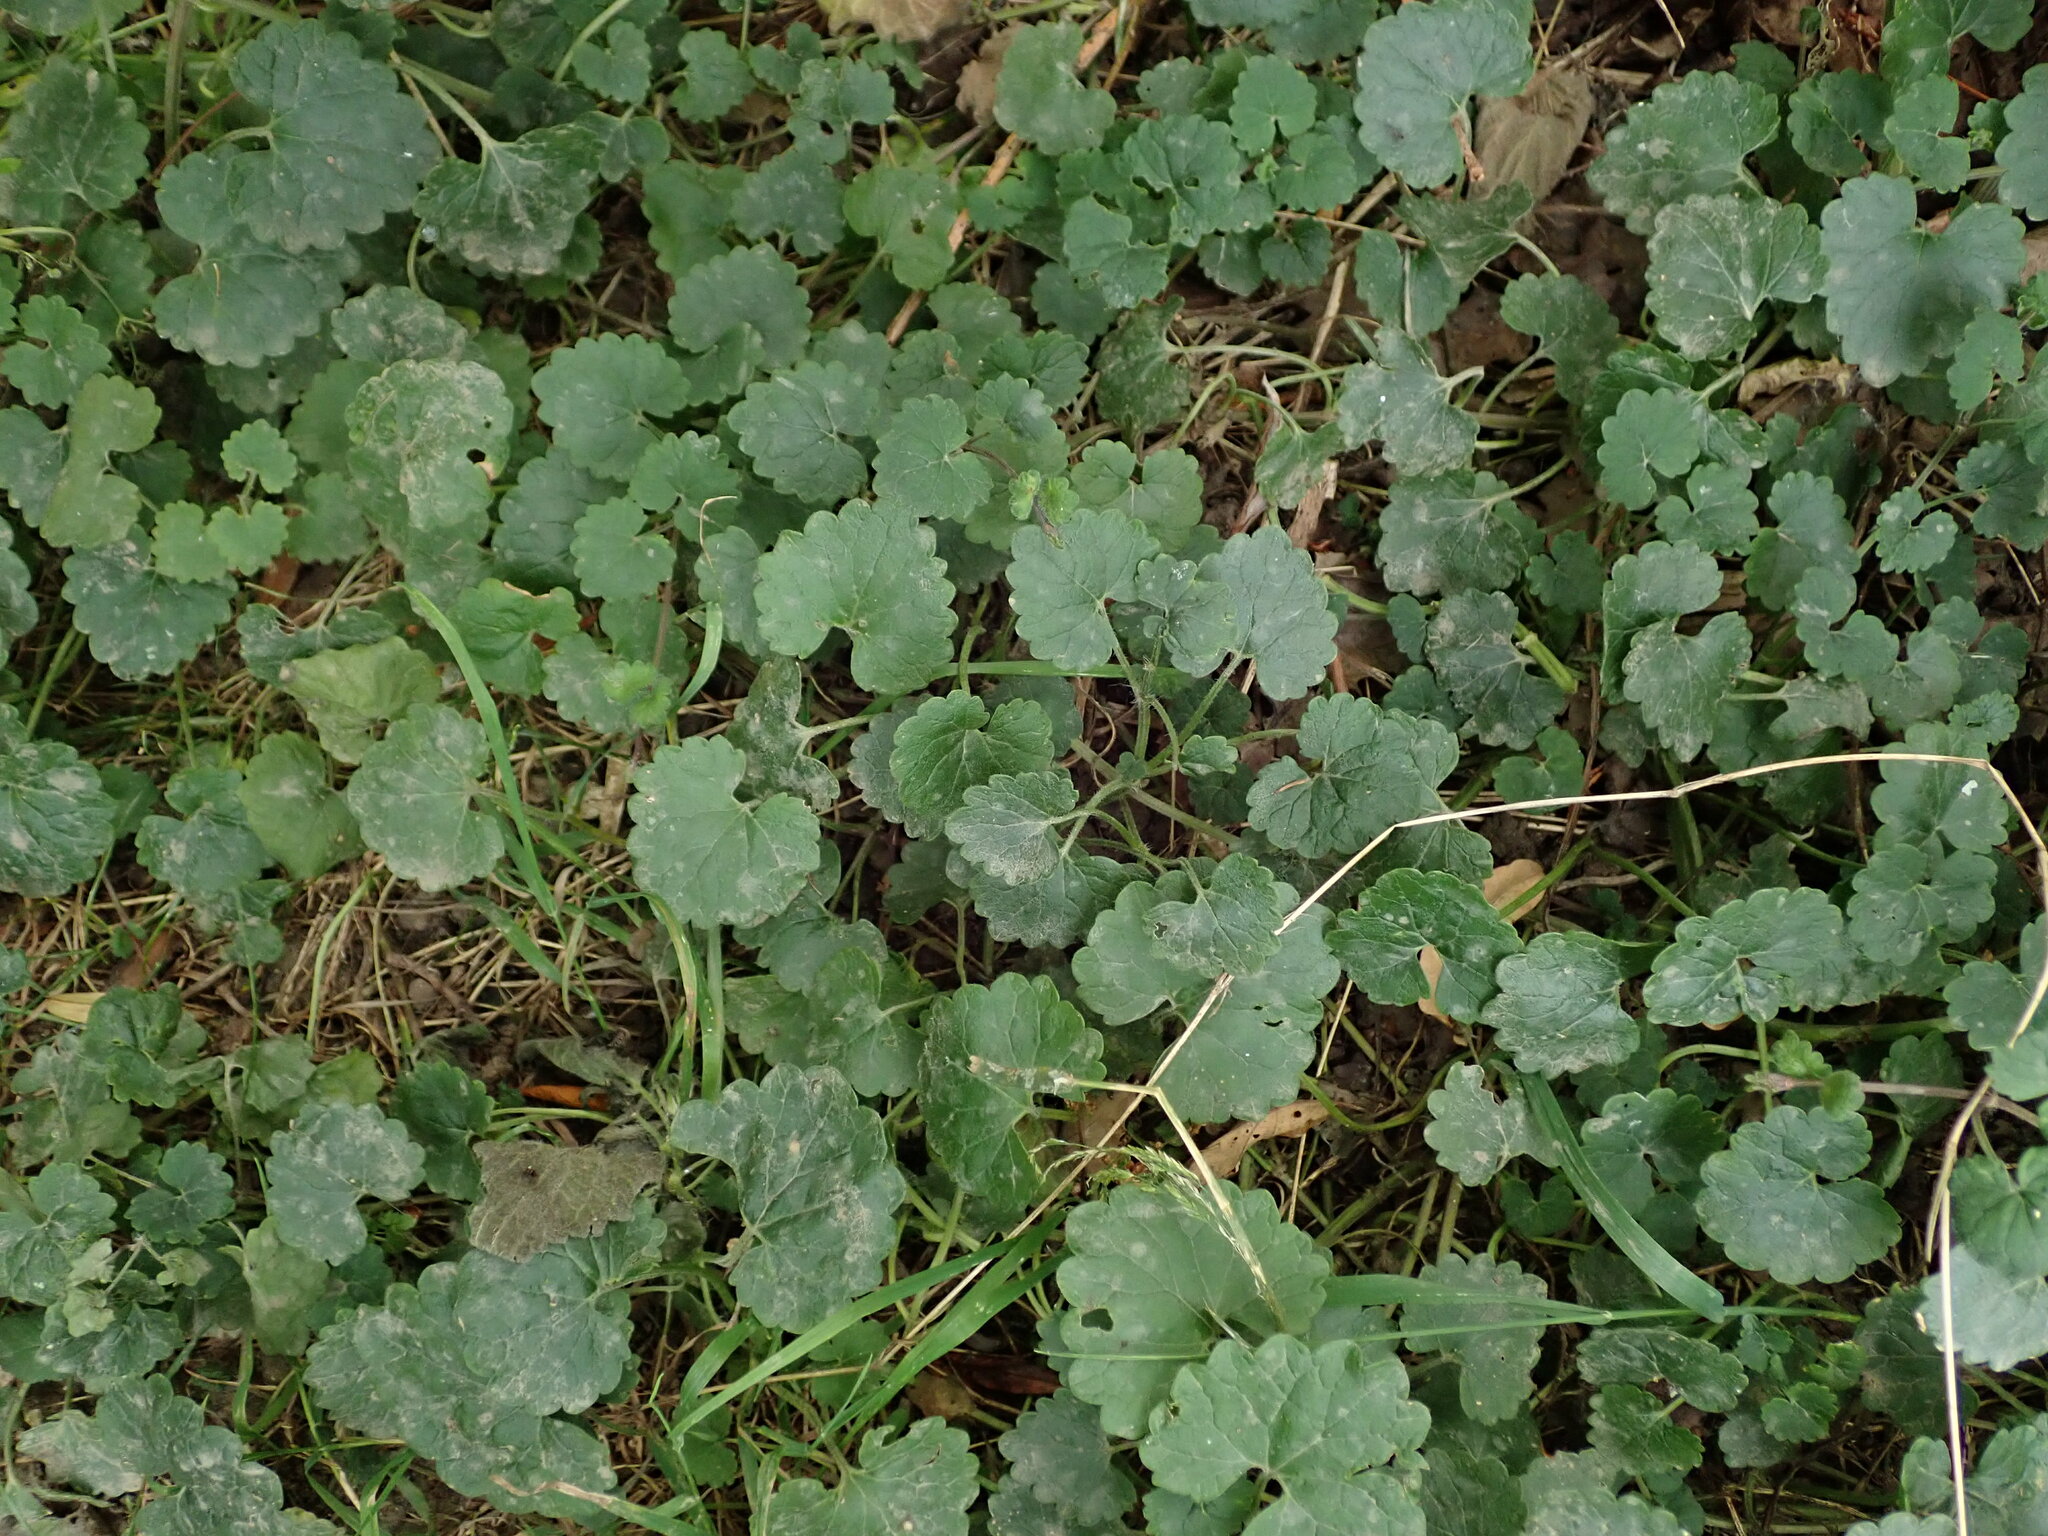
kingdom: Plantae
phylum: Tracheophyta
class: Magnoliopsida
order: Lamiales
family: Lamiaceae
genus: Glechoma
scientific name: Glechoma hederacea
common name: Ground ivy
